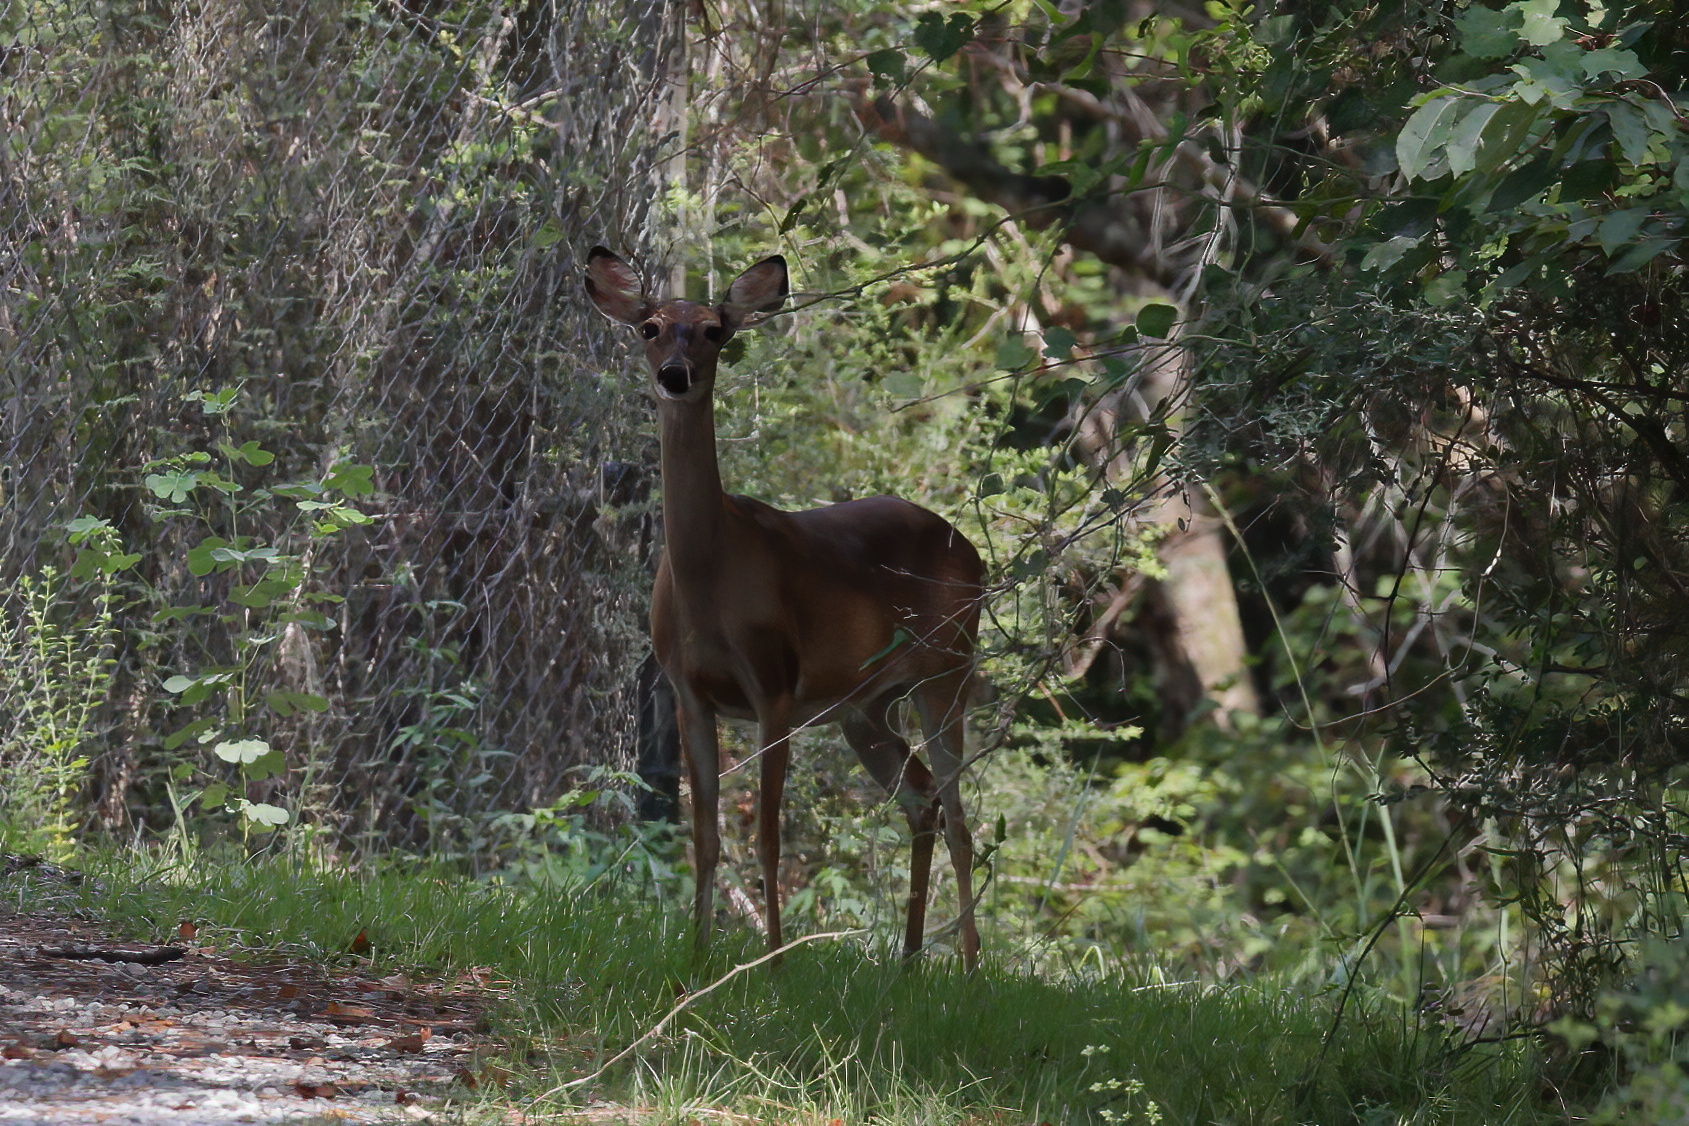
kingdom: Animalia
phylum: Chordata
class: Mammalia
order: Artiodactyla
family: Cervidae
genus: Odocoileus
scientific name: Odocoileus virginianus
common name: White-tailed deer
